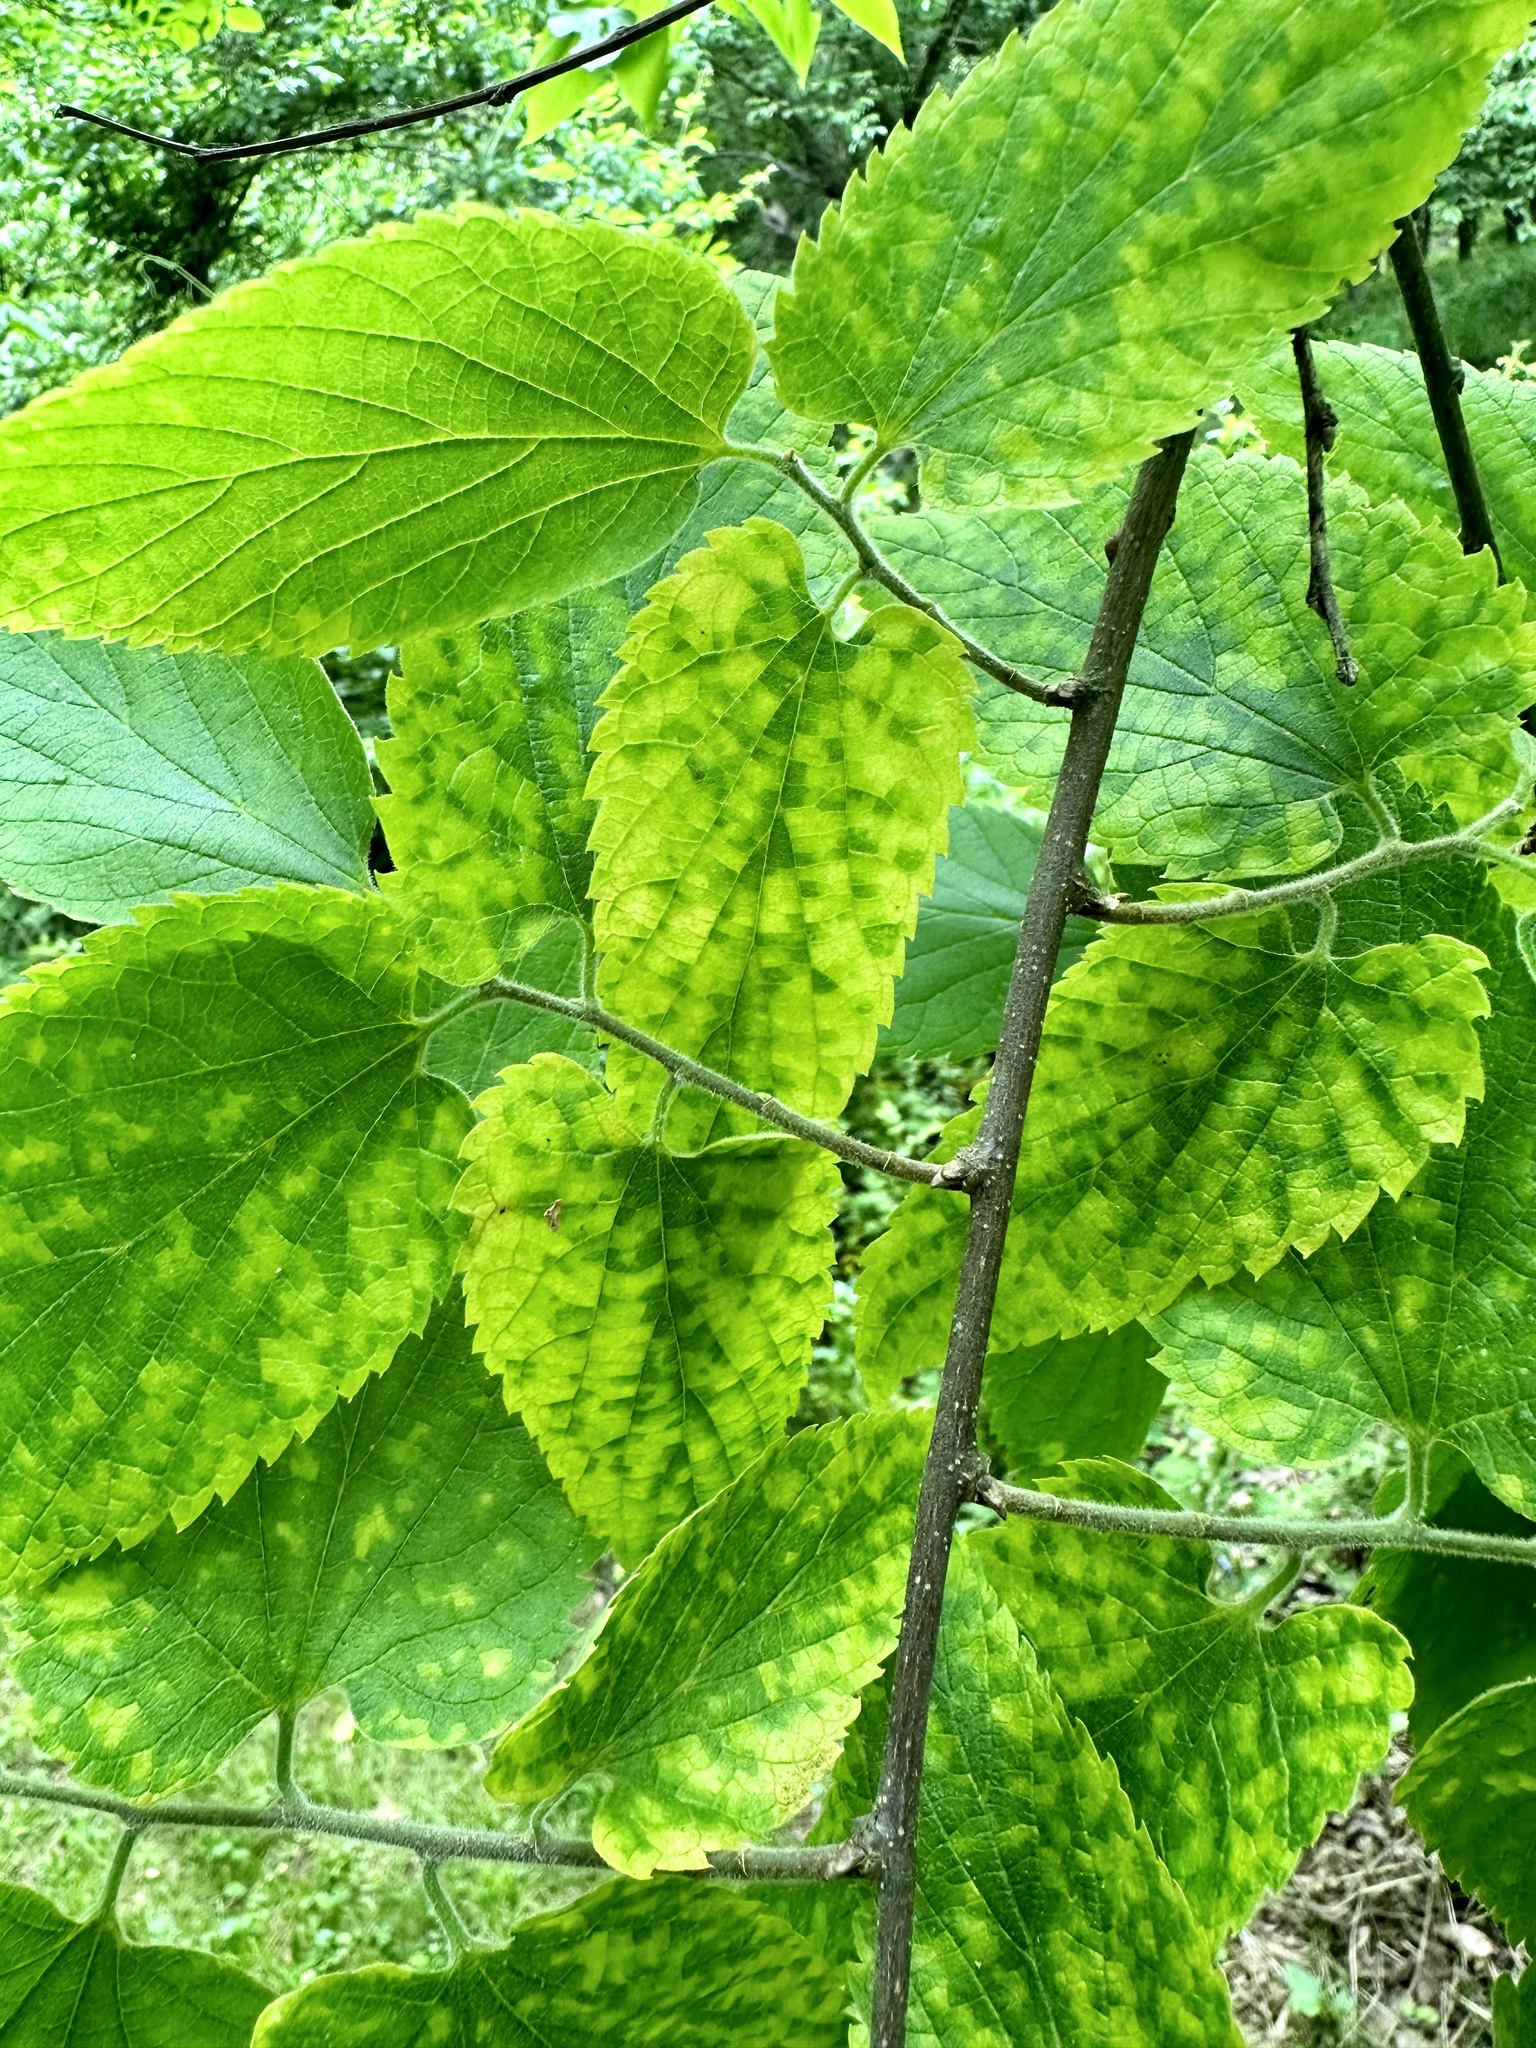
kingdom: Viruses
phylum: Kitrinoviricota
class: Alsuviricetes
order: Martellivirales
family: Closteroviridae
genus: Ampelovirus
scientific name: Ampelovirus
